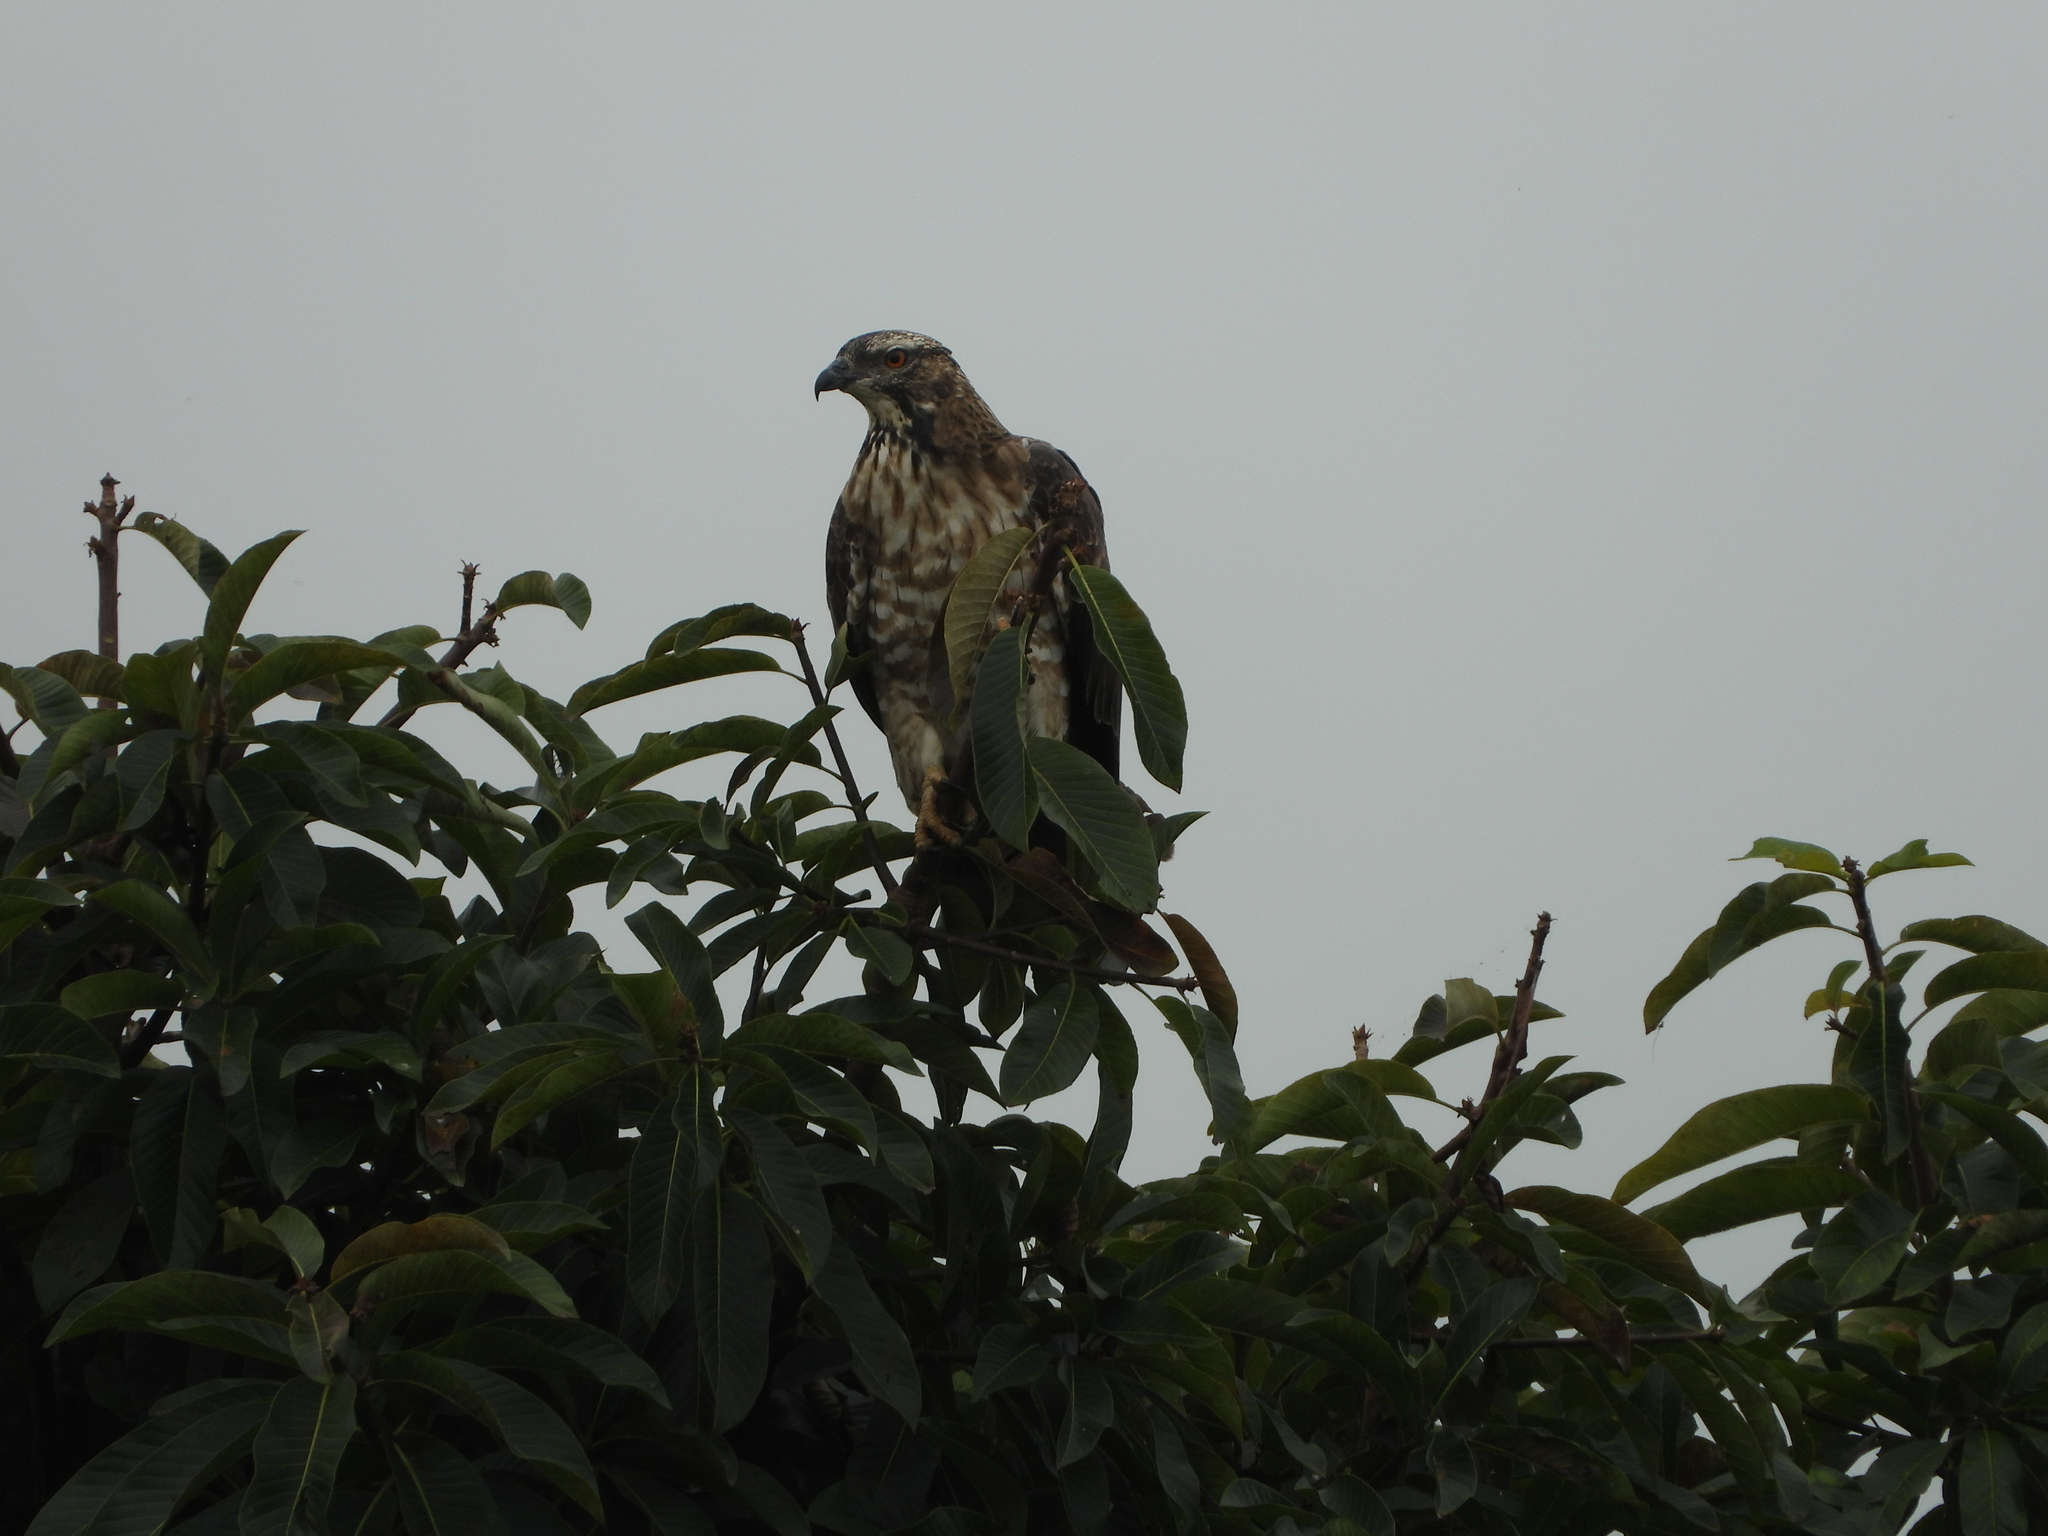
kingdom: Animalia
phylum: Chordata
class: Aves
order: Accipitriformes
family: Accipitridae
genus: Pernis
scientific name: Pernis ptilorhynchus
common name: Crested honey buzzard
